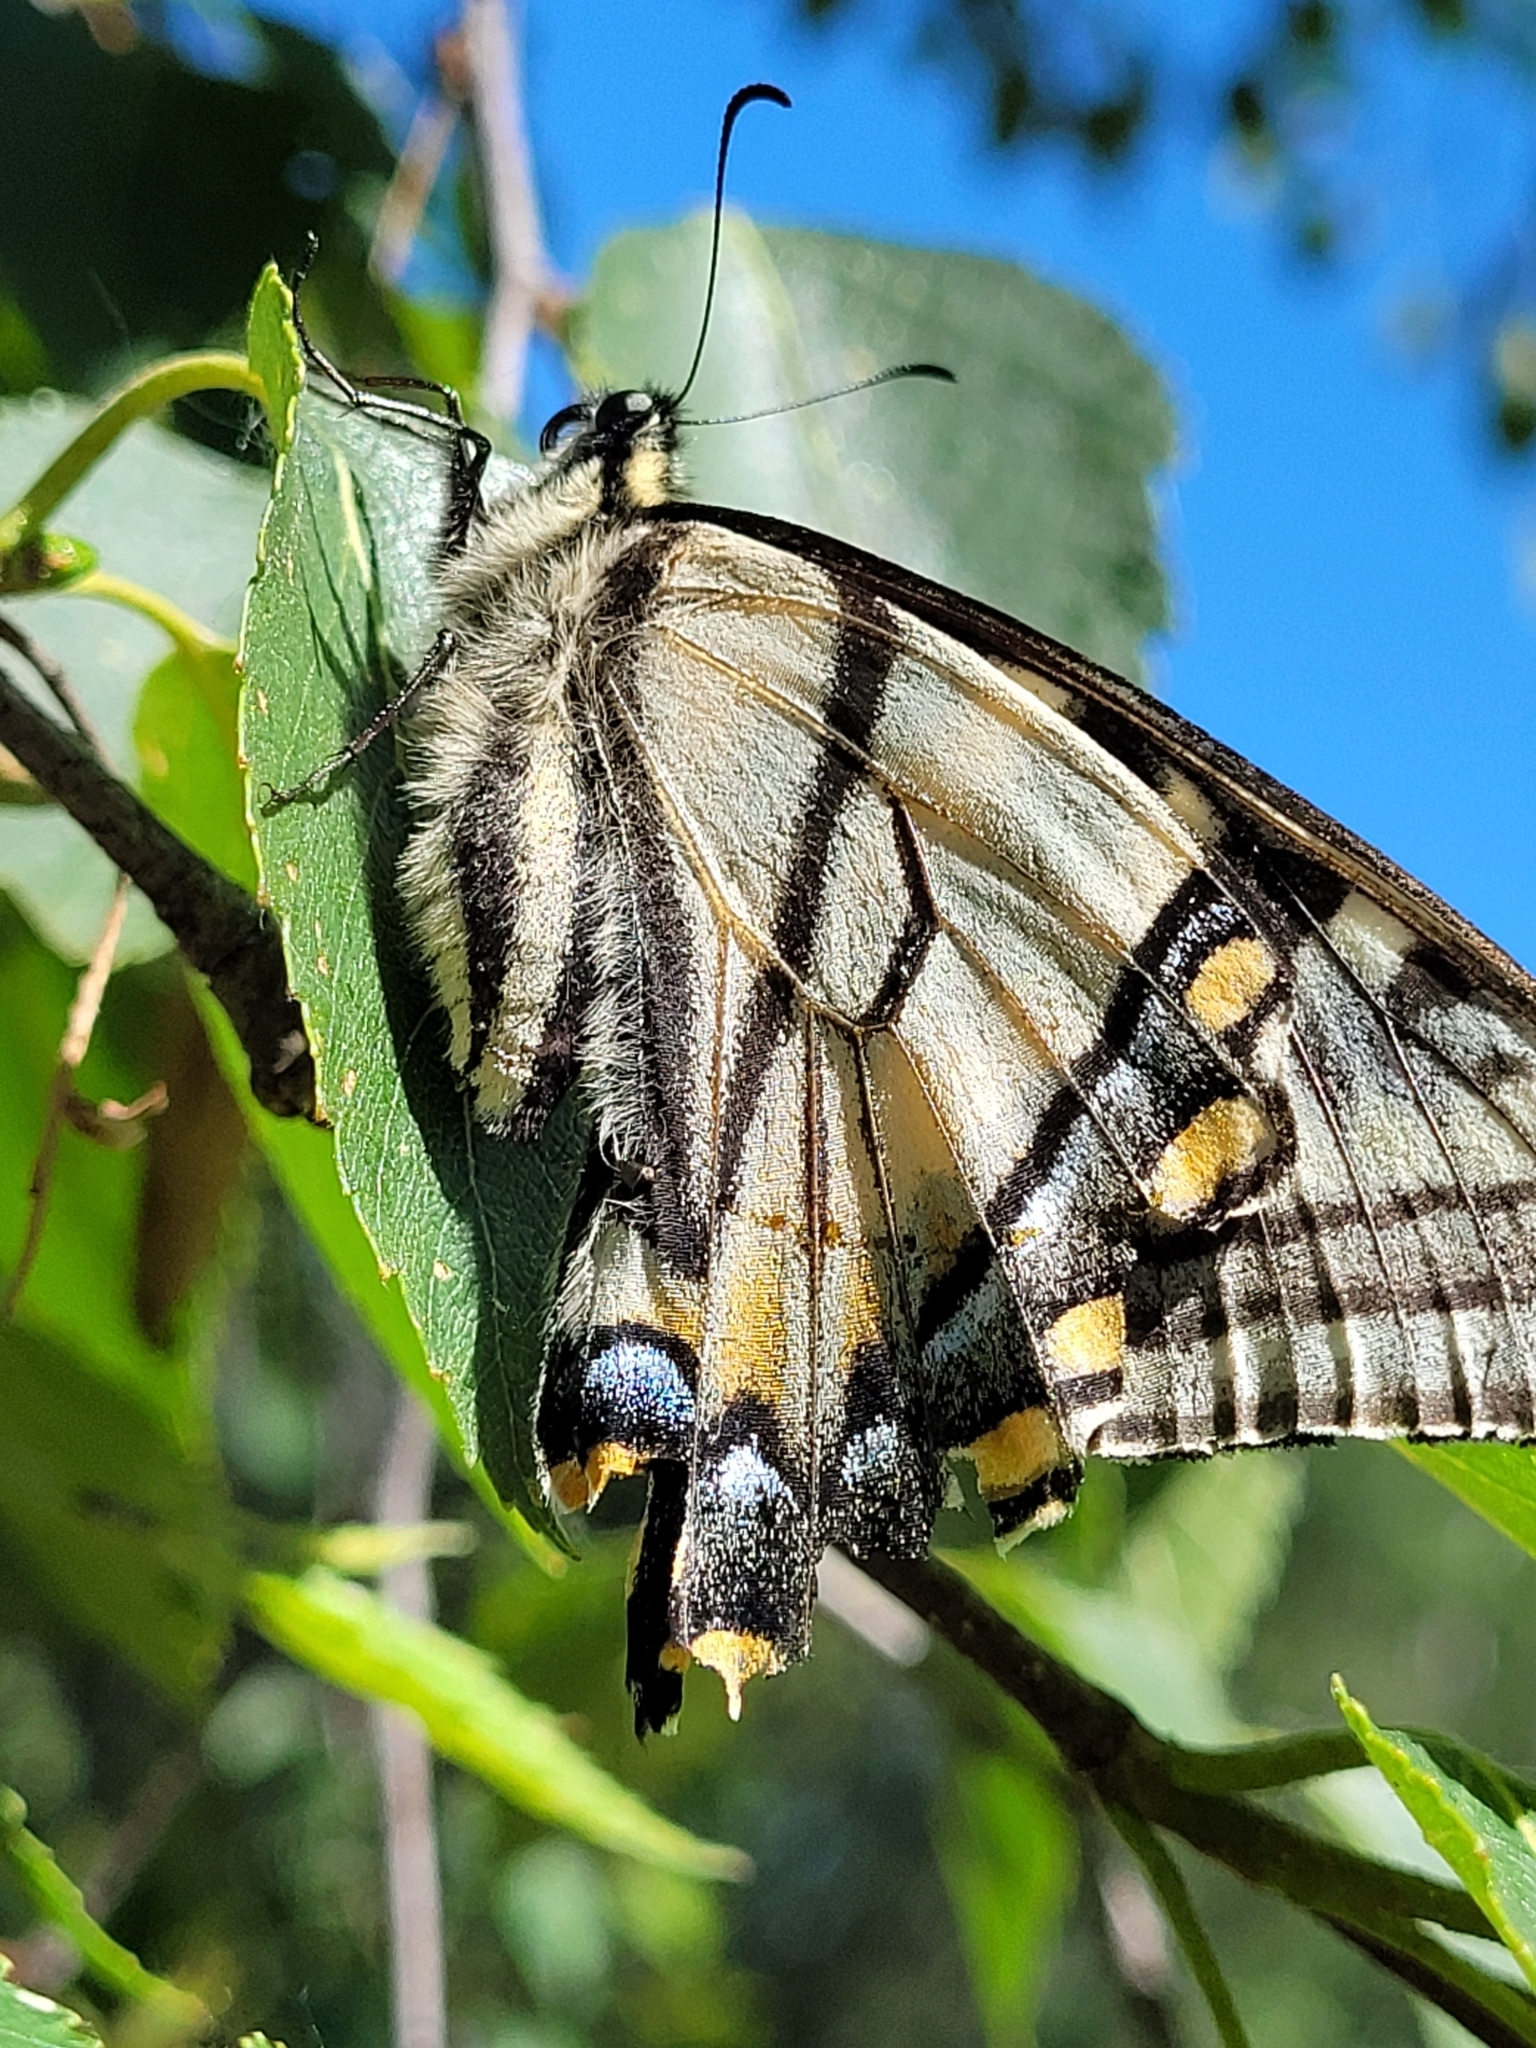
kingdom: Animalia
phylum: Arthropoda
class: Insecta
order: Lepidoptera
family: Papilionidae
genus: Papilio
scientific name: Papilio canadensis
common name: Canadian tiger swallowtail
